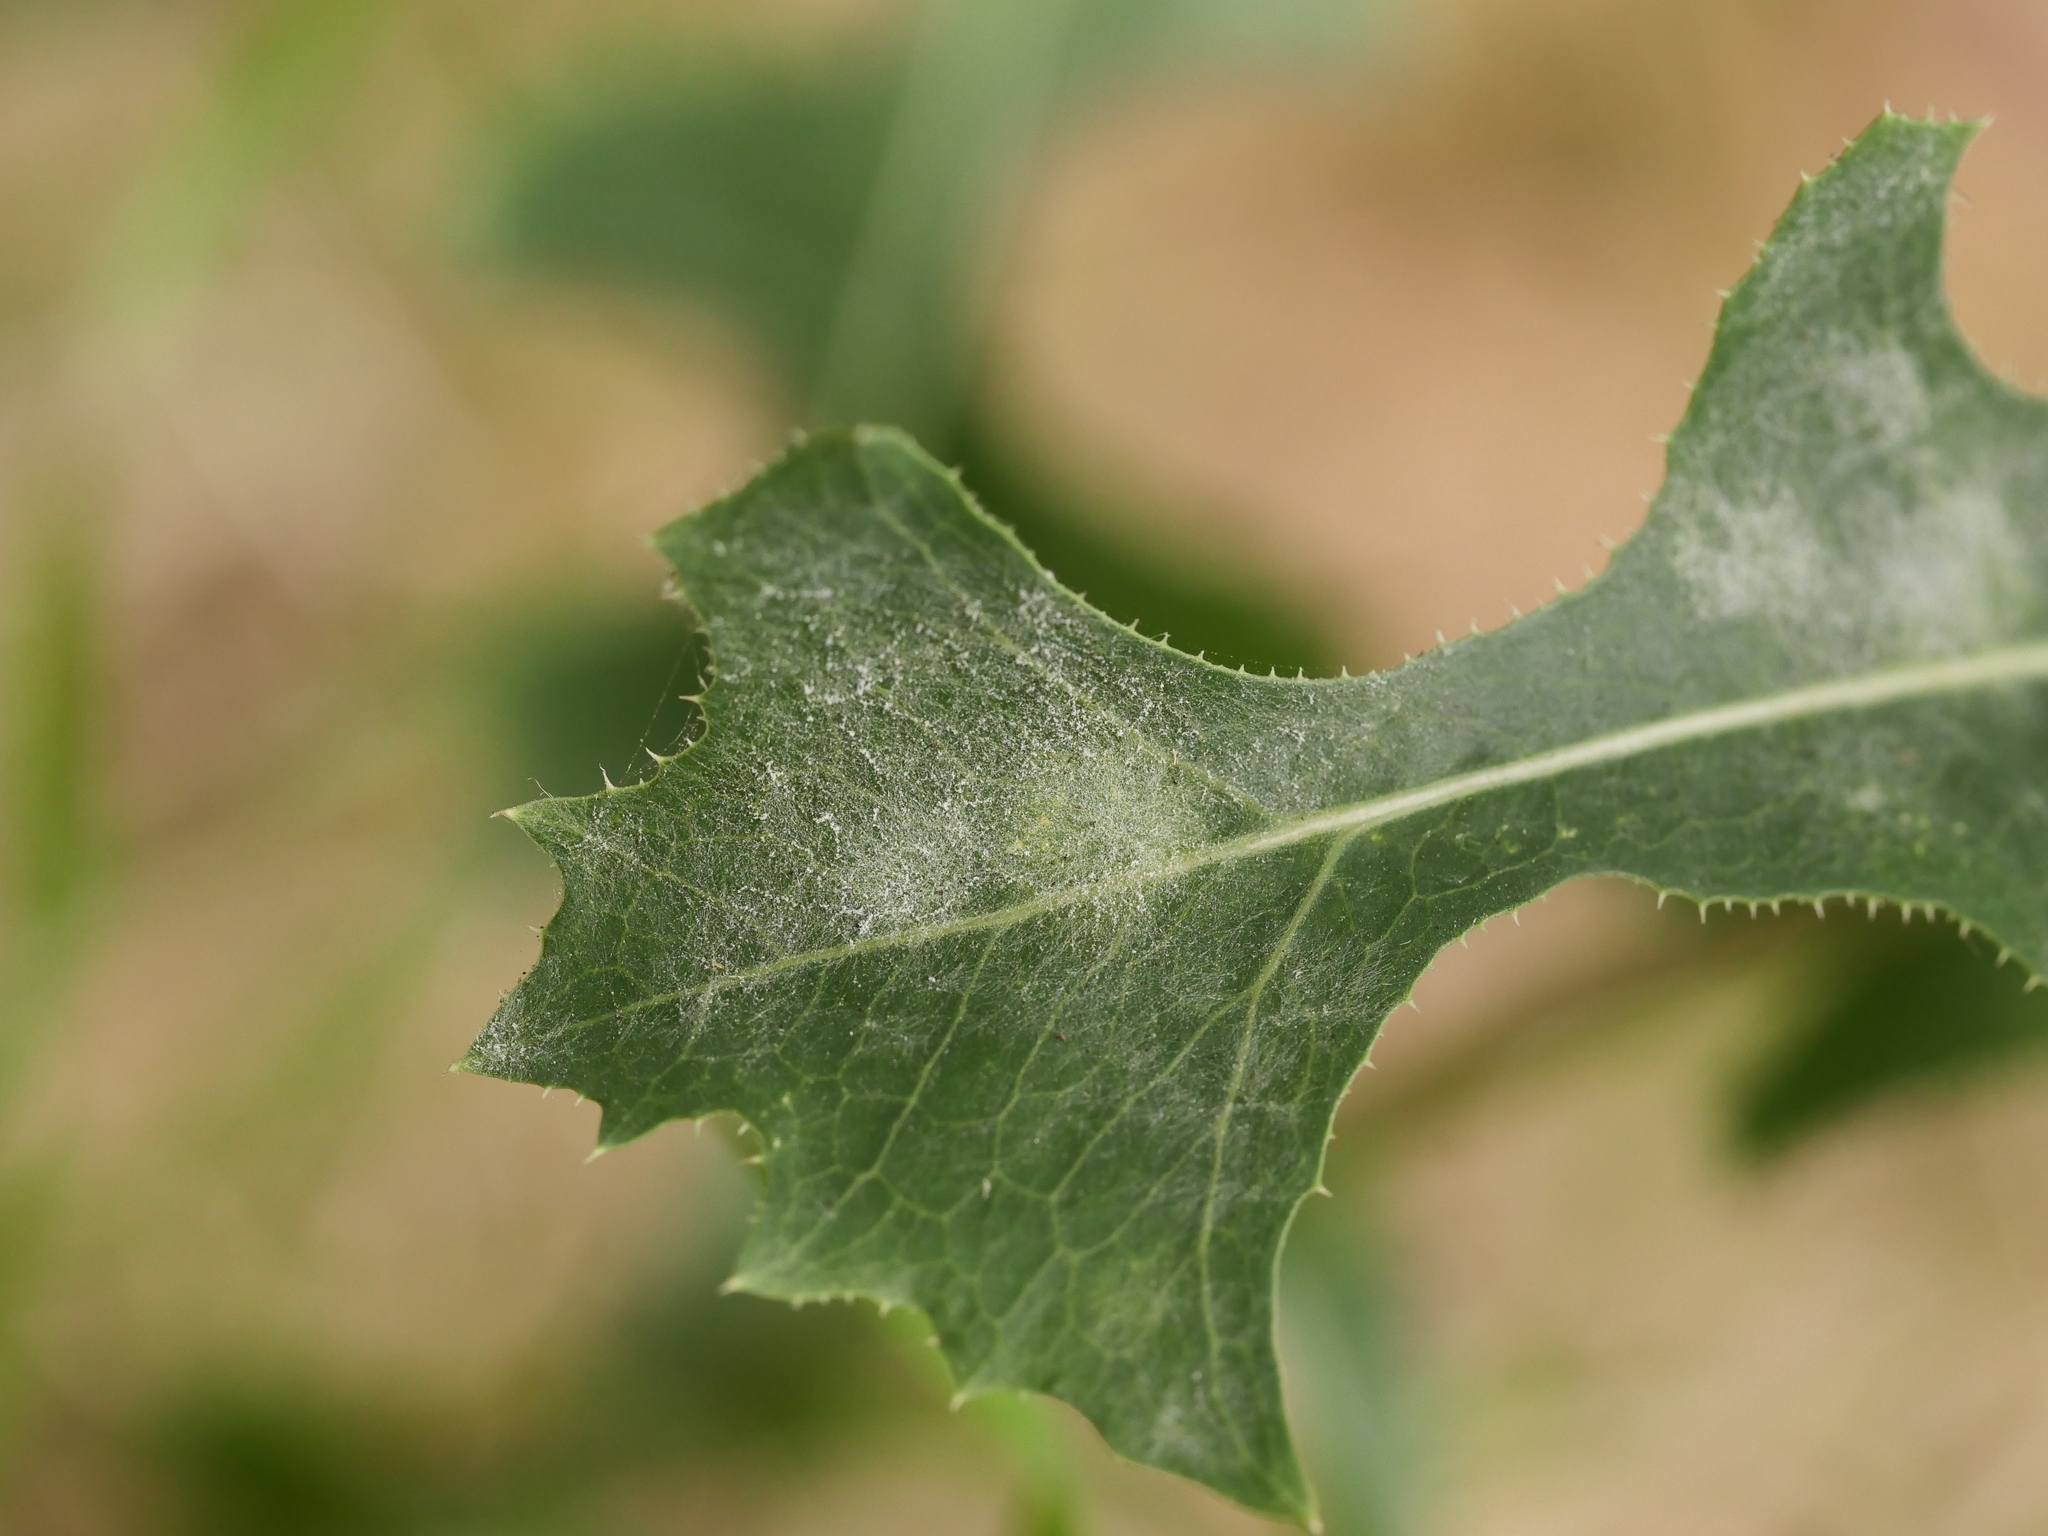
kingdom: Fungi
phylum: Ascomycota
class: Leotiomycetes
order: Helotiales
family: Erysiphaceae
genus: Golovinomyces
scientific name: Golovinomyces bolayi
